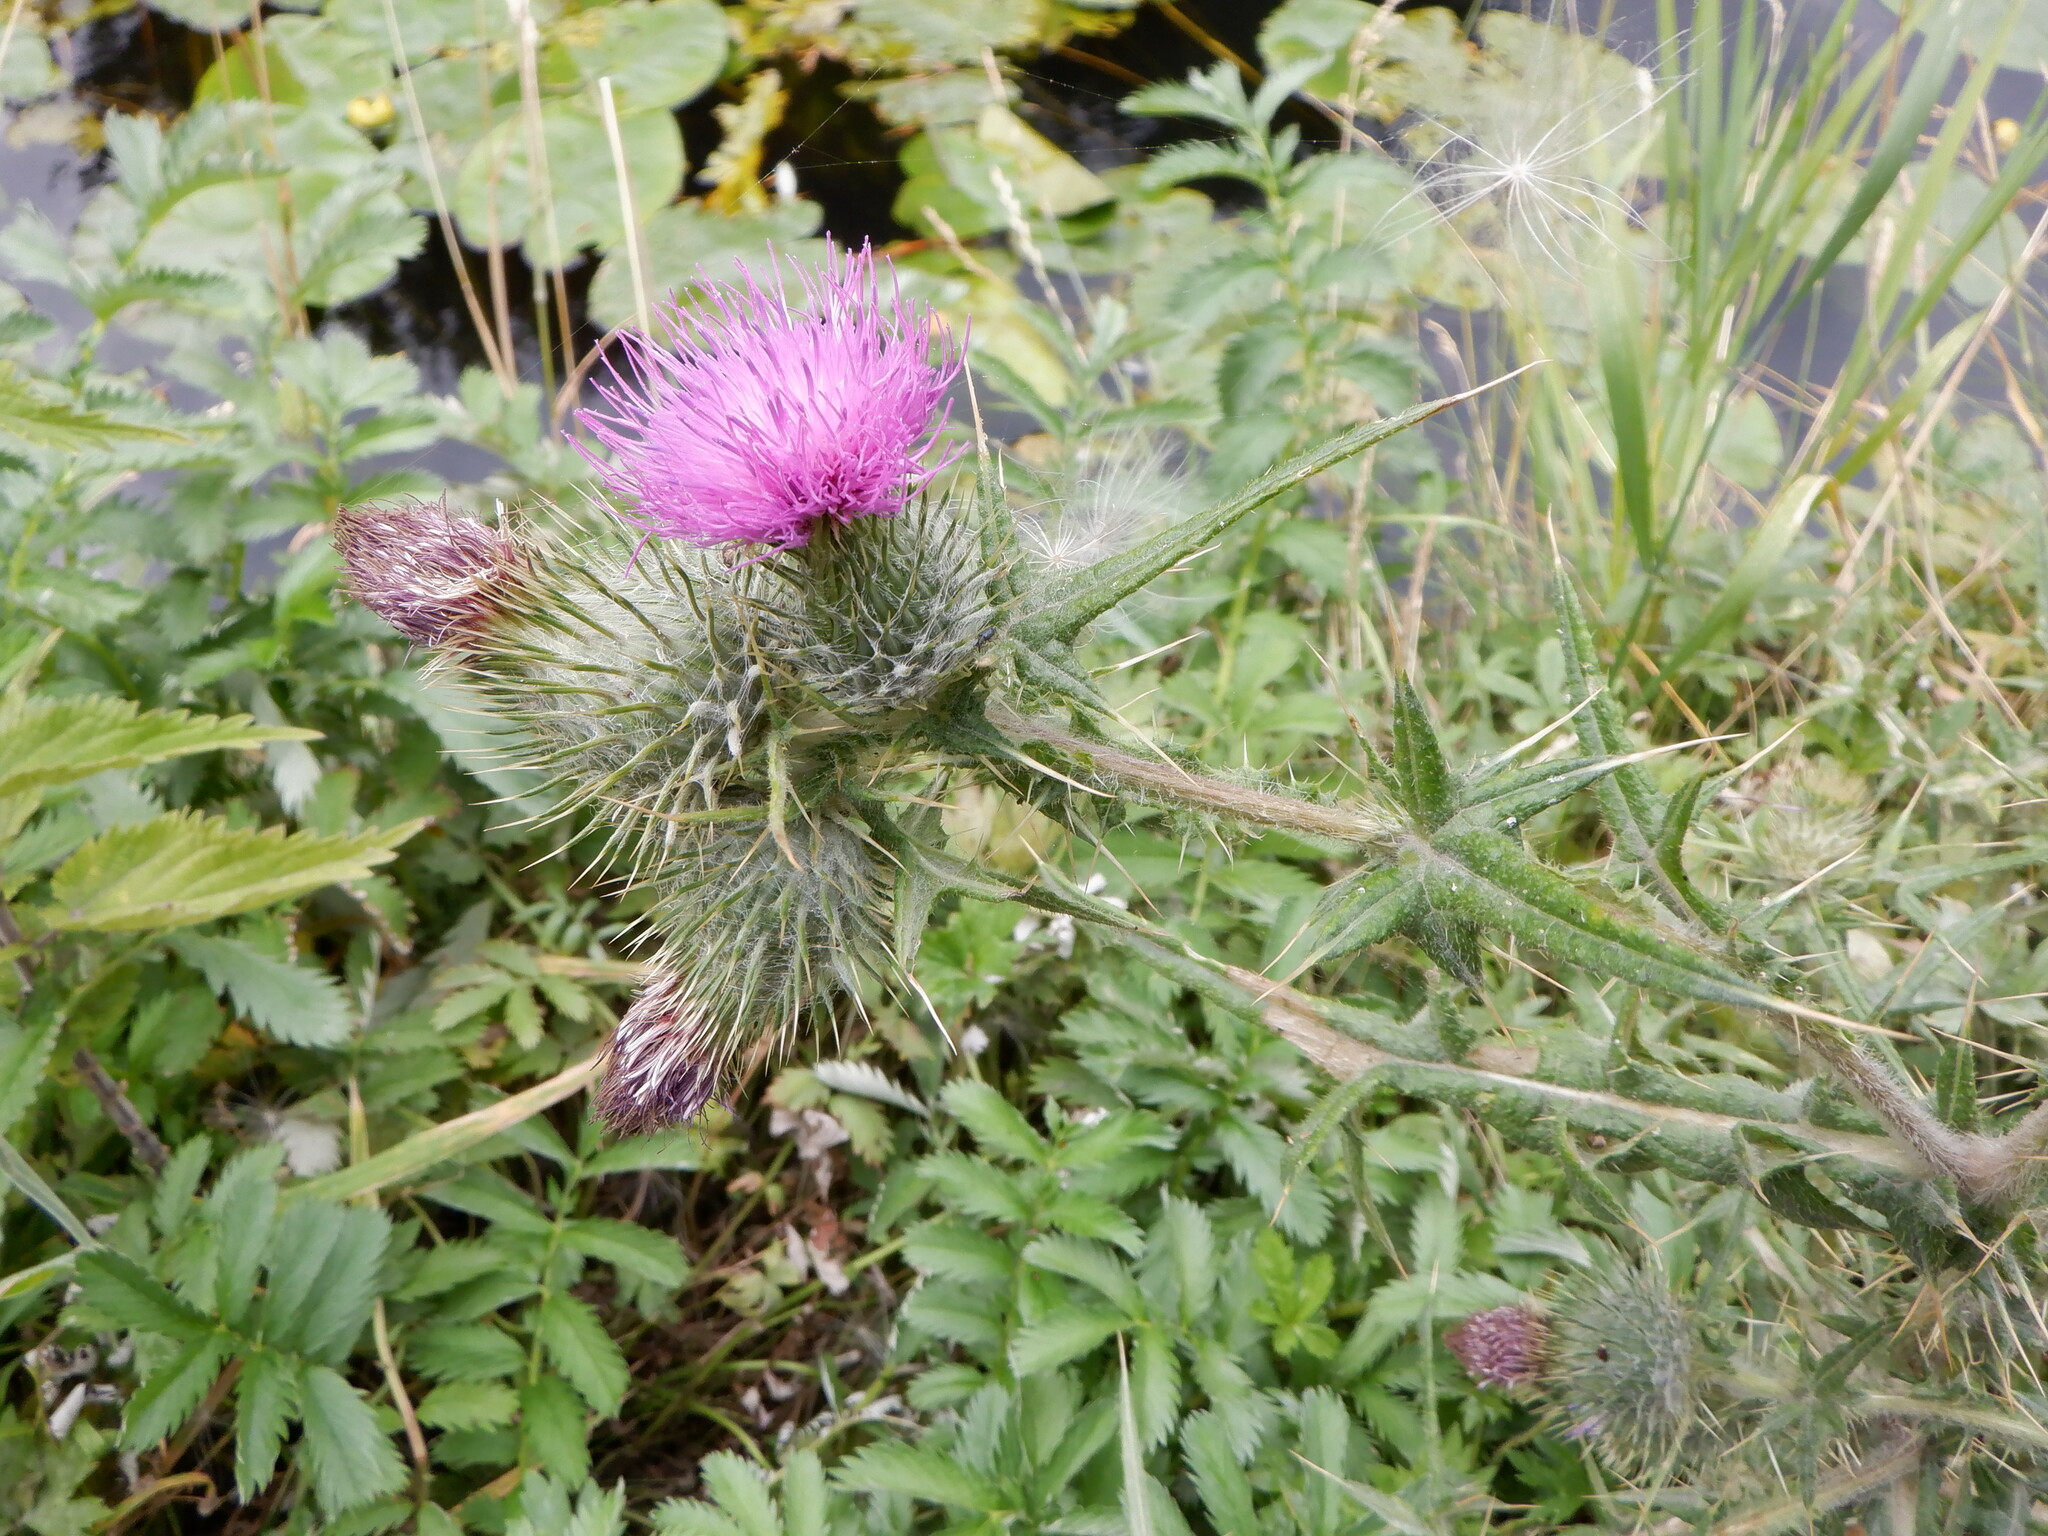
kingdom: Plantae
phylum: Tracheophyta
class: Magnoliopsida
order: Asterales
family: Asteraceae
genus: Cirsium
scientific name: Cirsium vulgare
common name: Bull thistle
